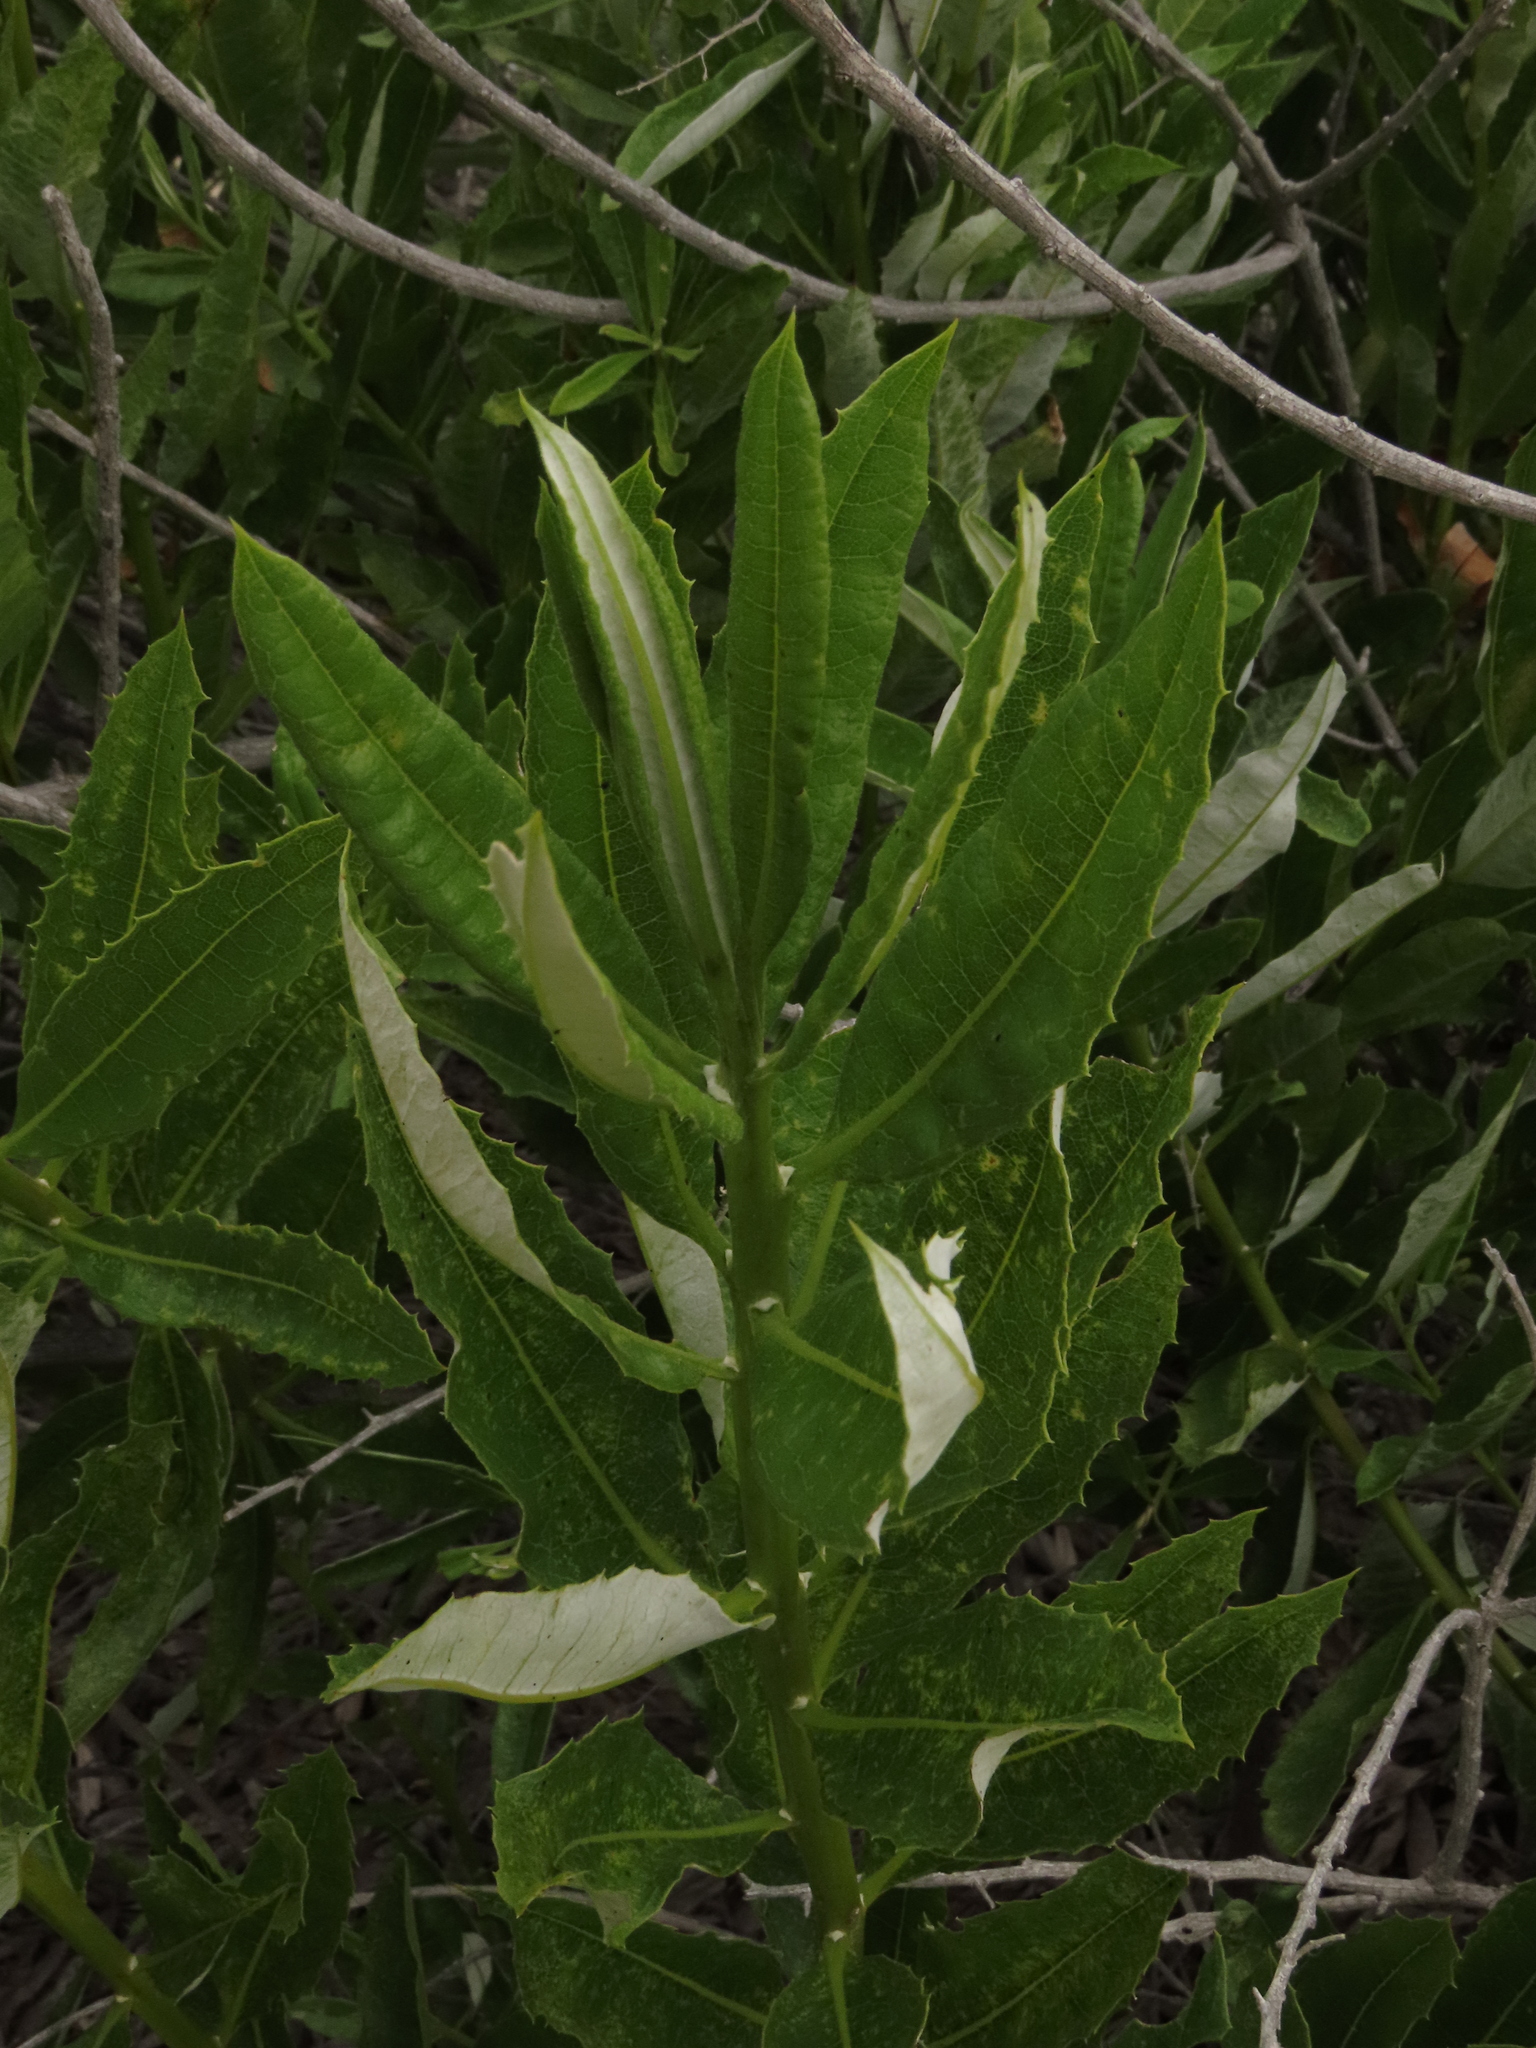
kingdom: Plantae
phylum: Tracheophyta
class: Magnoliopsida
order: Asterales
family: Asteraceae
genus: Spinoliva
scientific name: Spinoliva ilicifolia
